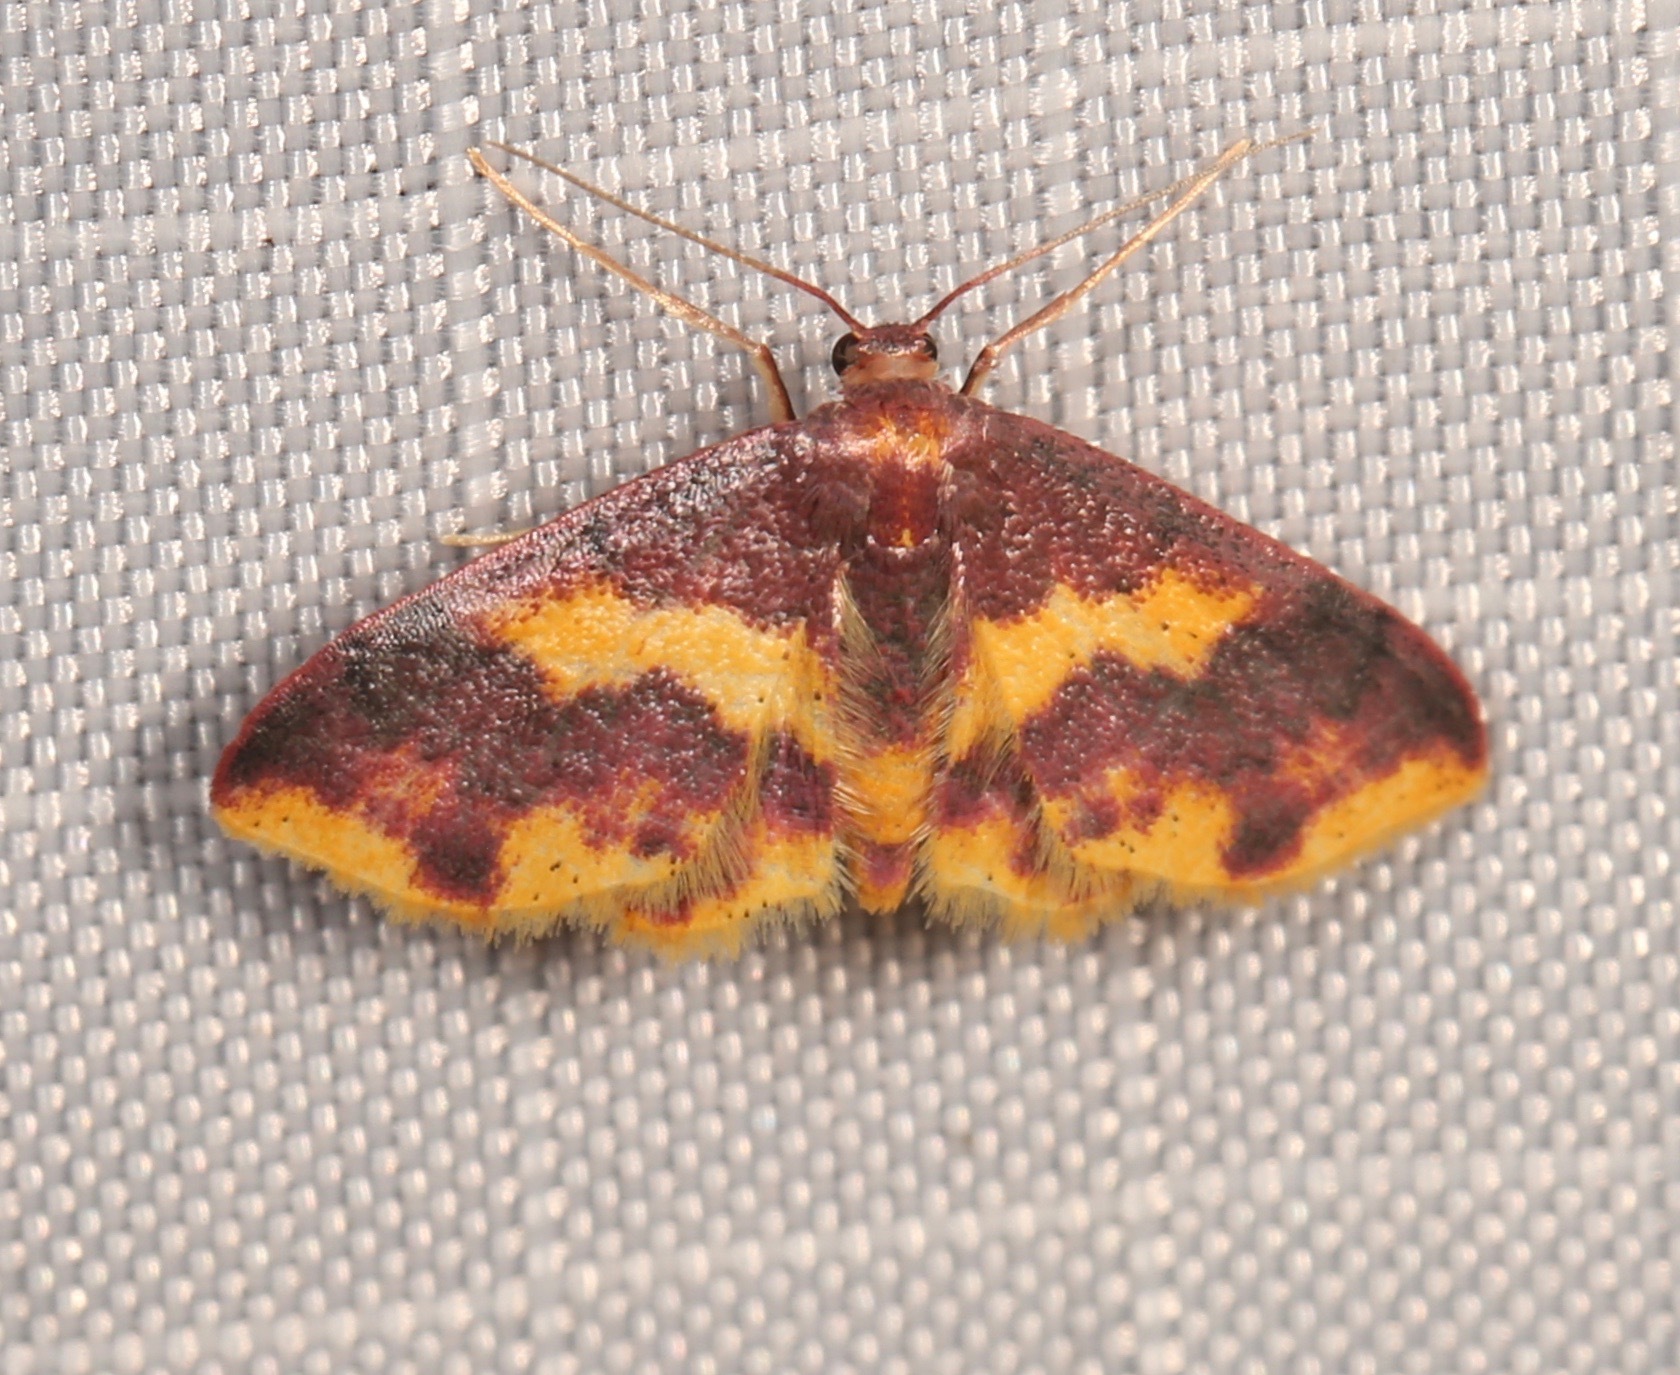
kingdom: Animalia
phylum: Arthropoda
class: Insecta
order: Lepidoptera
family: Geometridae
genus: Lophosis
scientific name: Lophosis labeculata
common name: Stained lophosis moth
